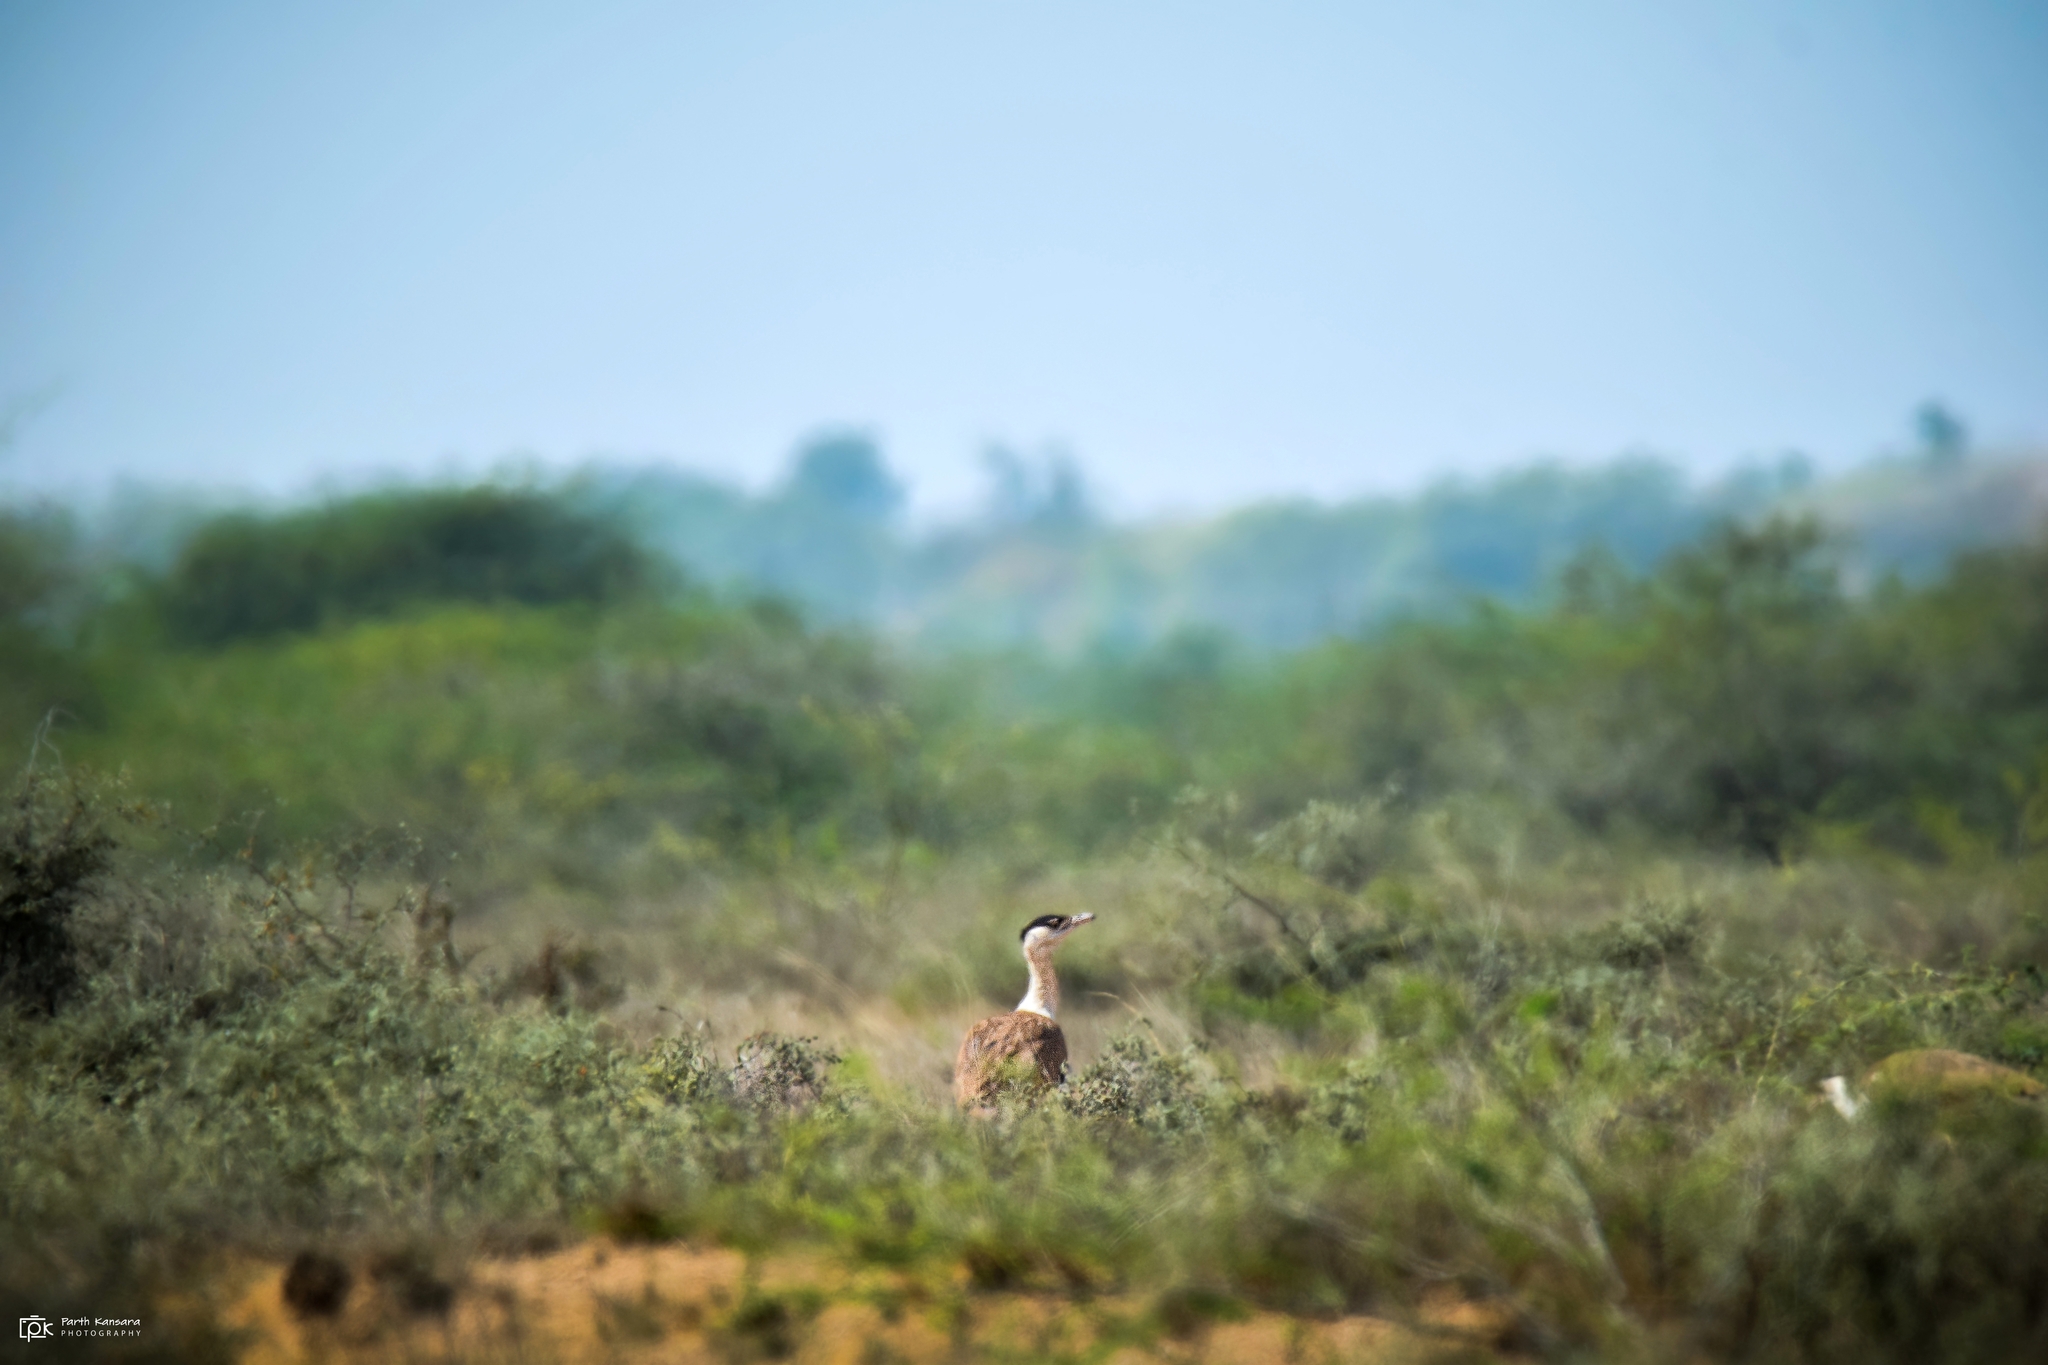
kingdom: Animalia
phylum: Chordata
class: Aves
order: Otidiformes
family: Otididae
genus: Ardeotis
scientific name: Ardeotis nigriceps
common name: Great indian bustard
